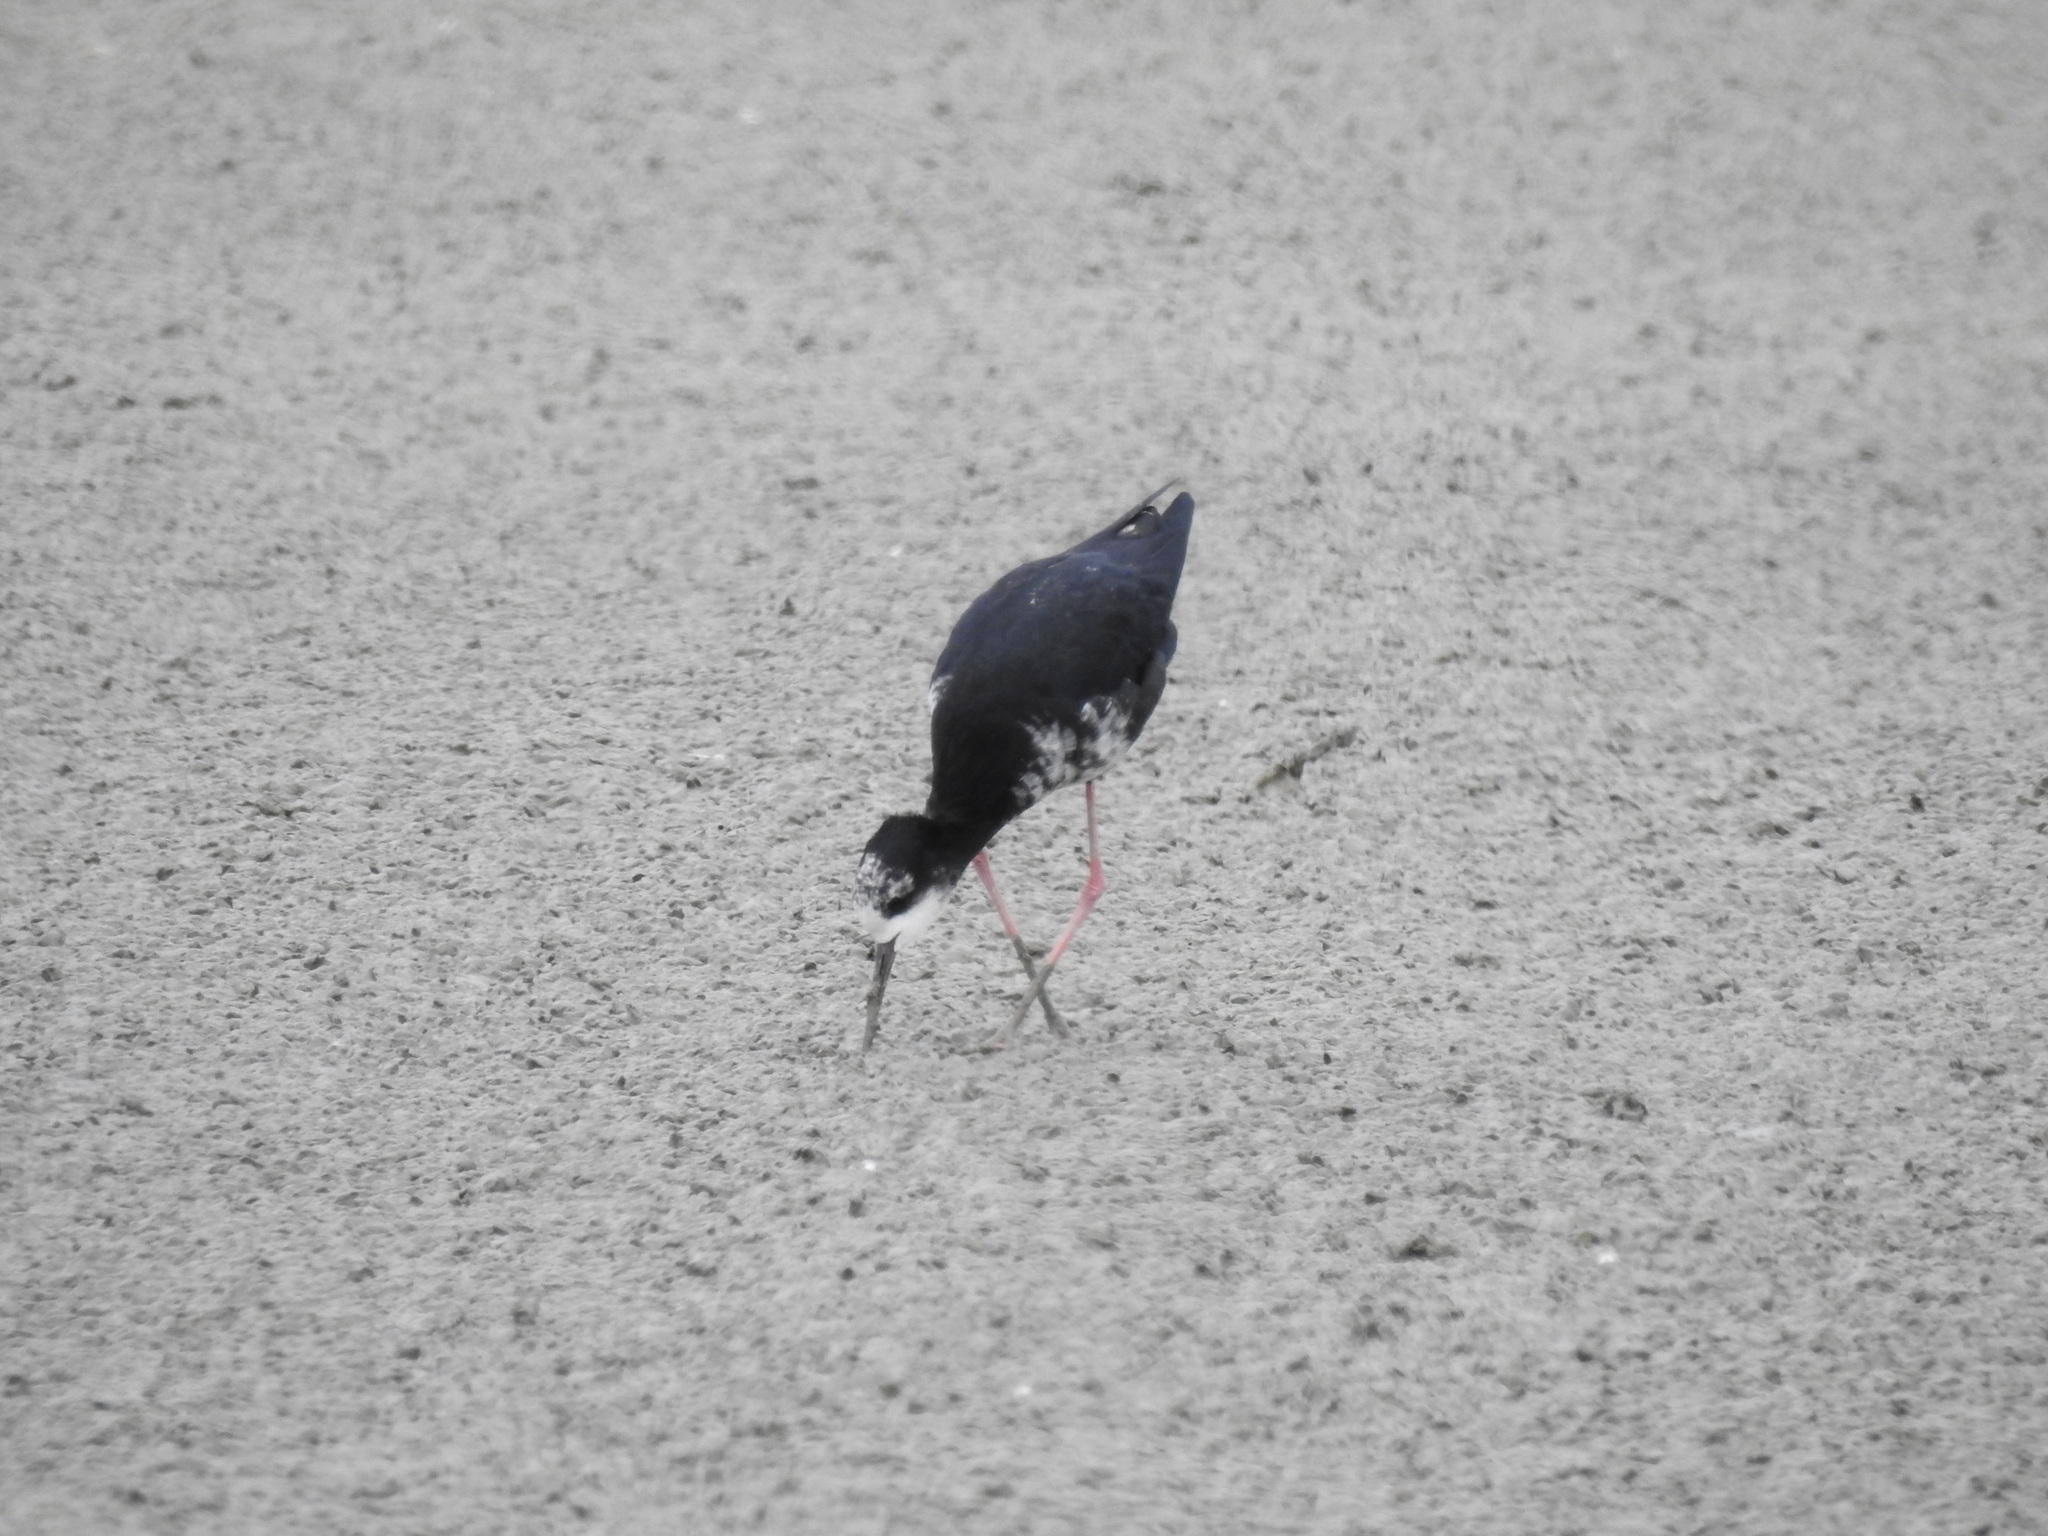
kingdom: Animalia
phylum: Chordata
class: Aves
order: Charadriiformes
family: Recurvirostridae
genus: Himantopus
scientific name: Himantopus
